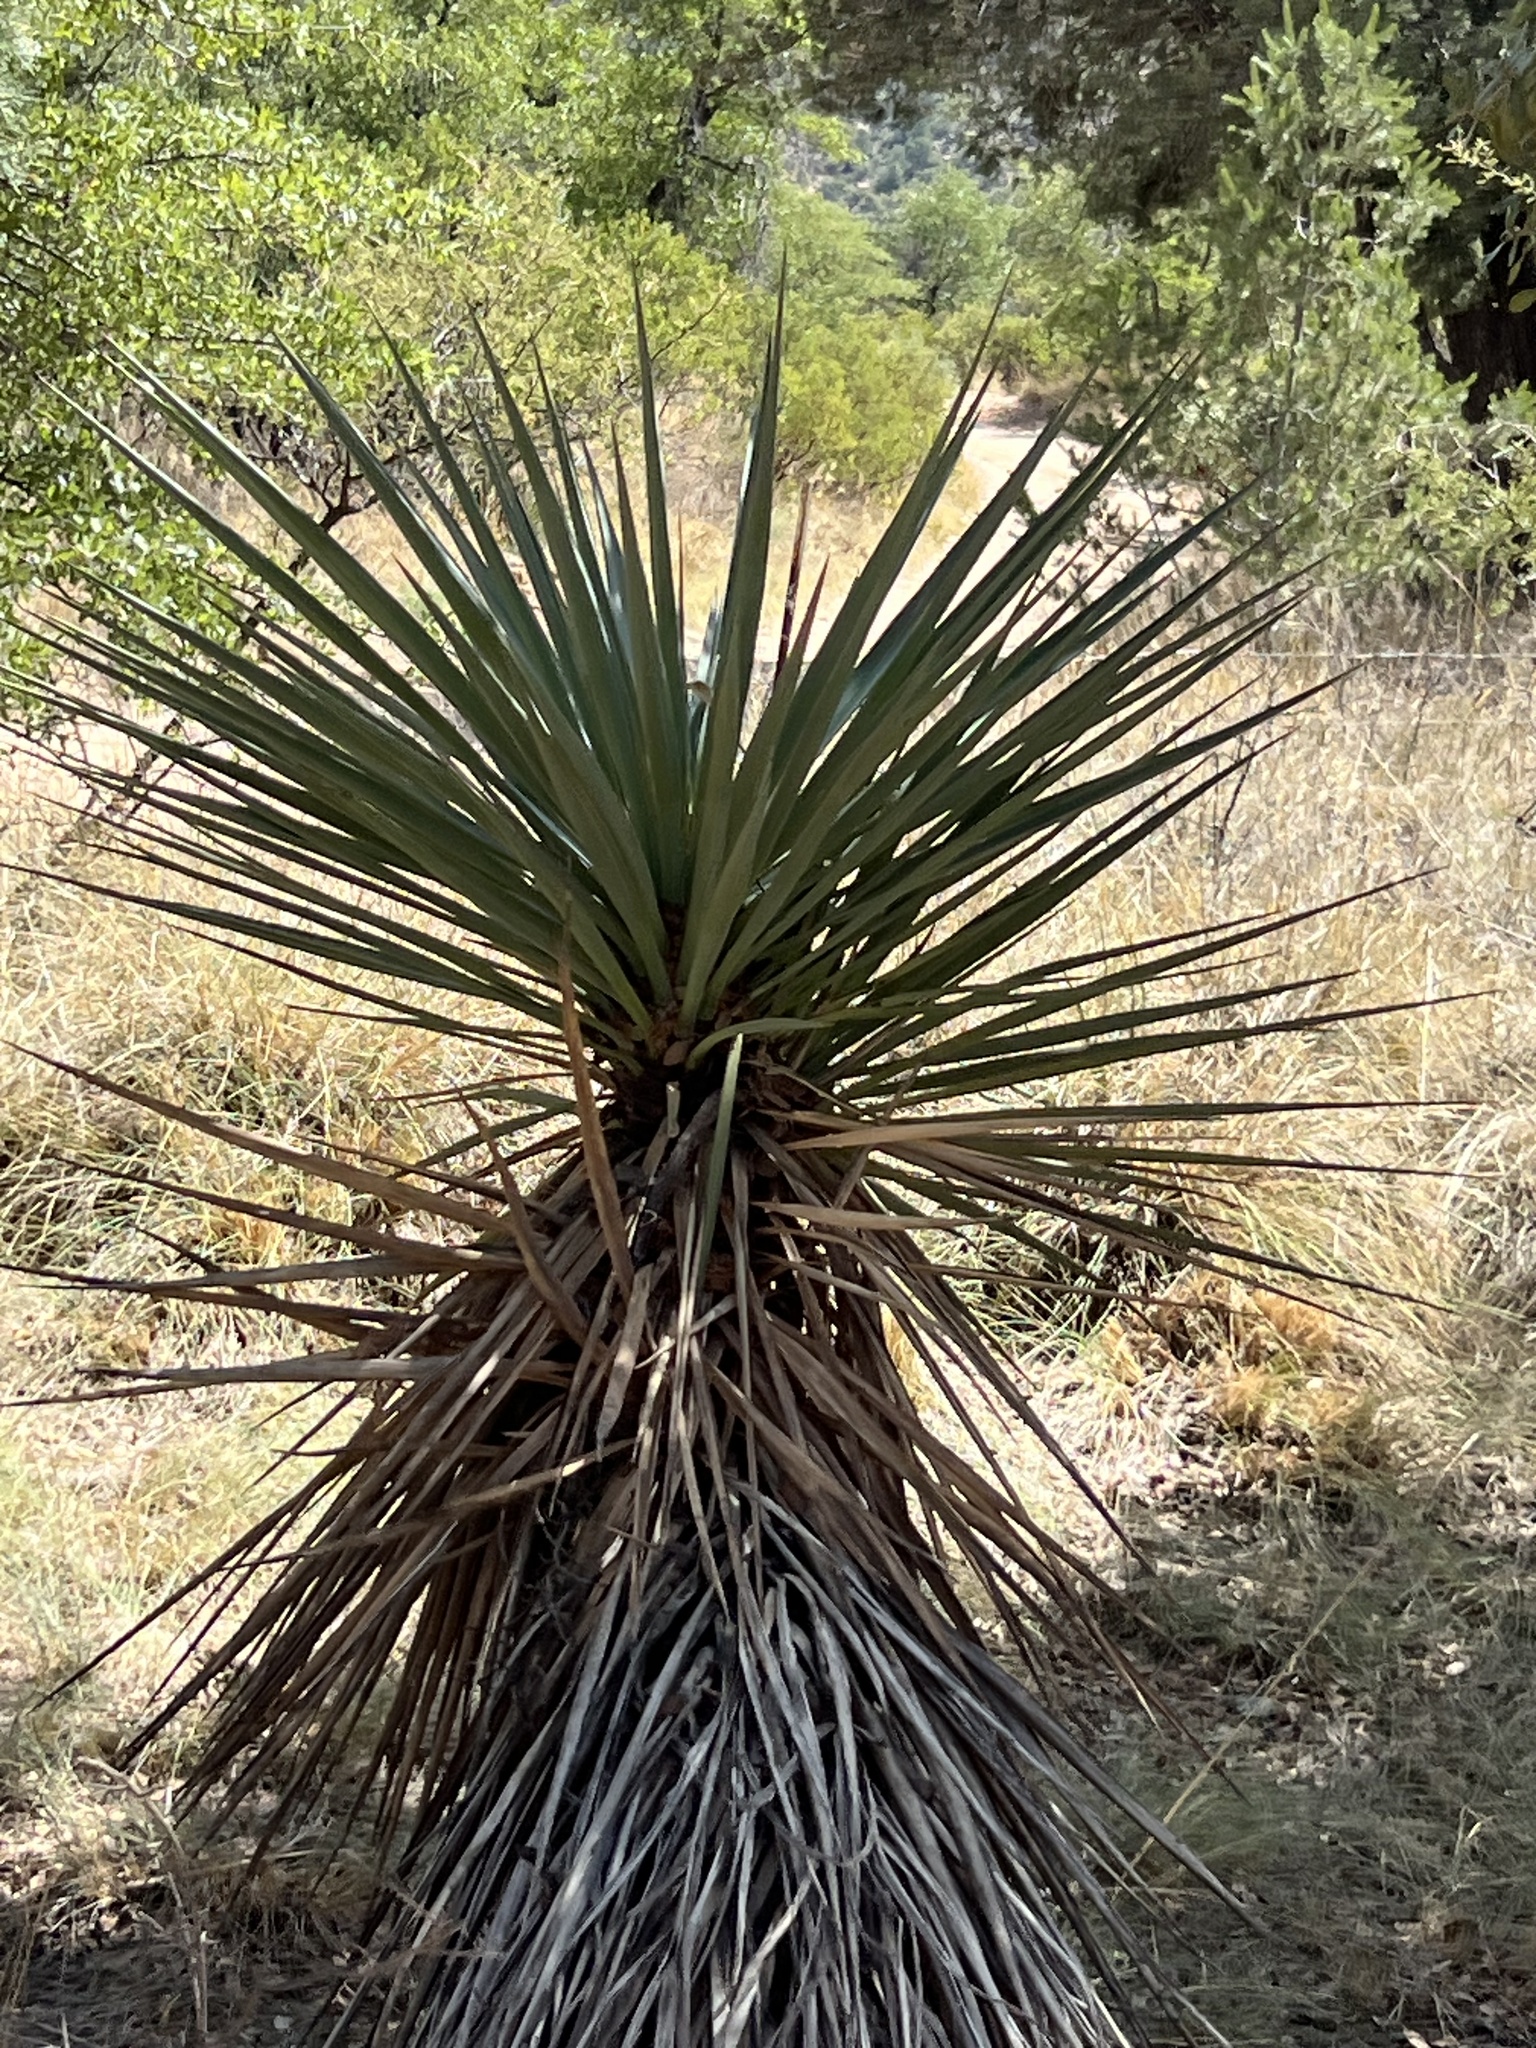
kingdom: Plantae
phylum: Tracheophyta
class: Liliopsida
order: Asparagales
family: Asparagaceae
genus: Yucca
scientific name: Yucca schottii
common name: Hoary yucca
